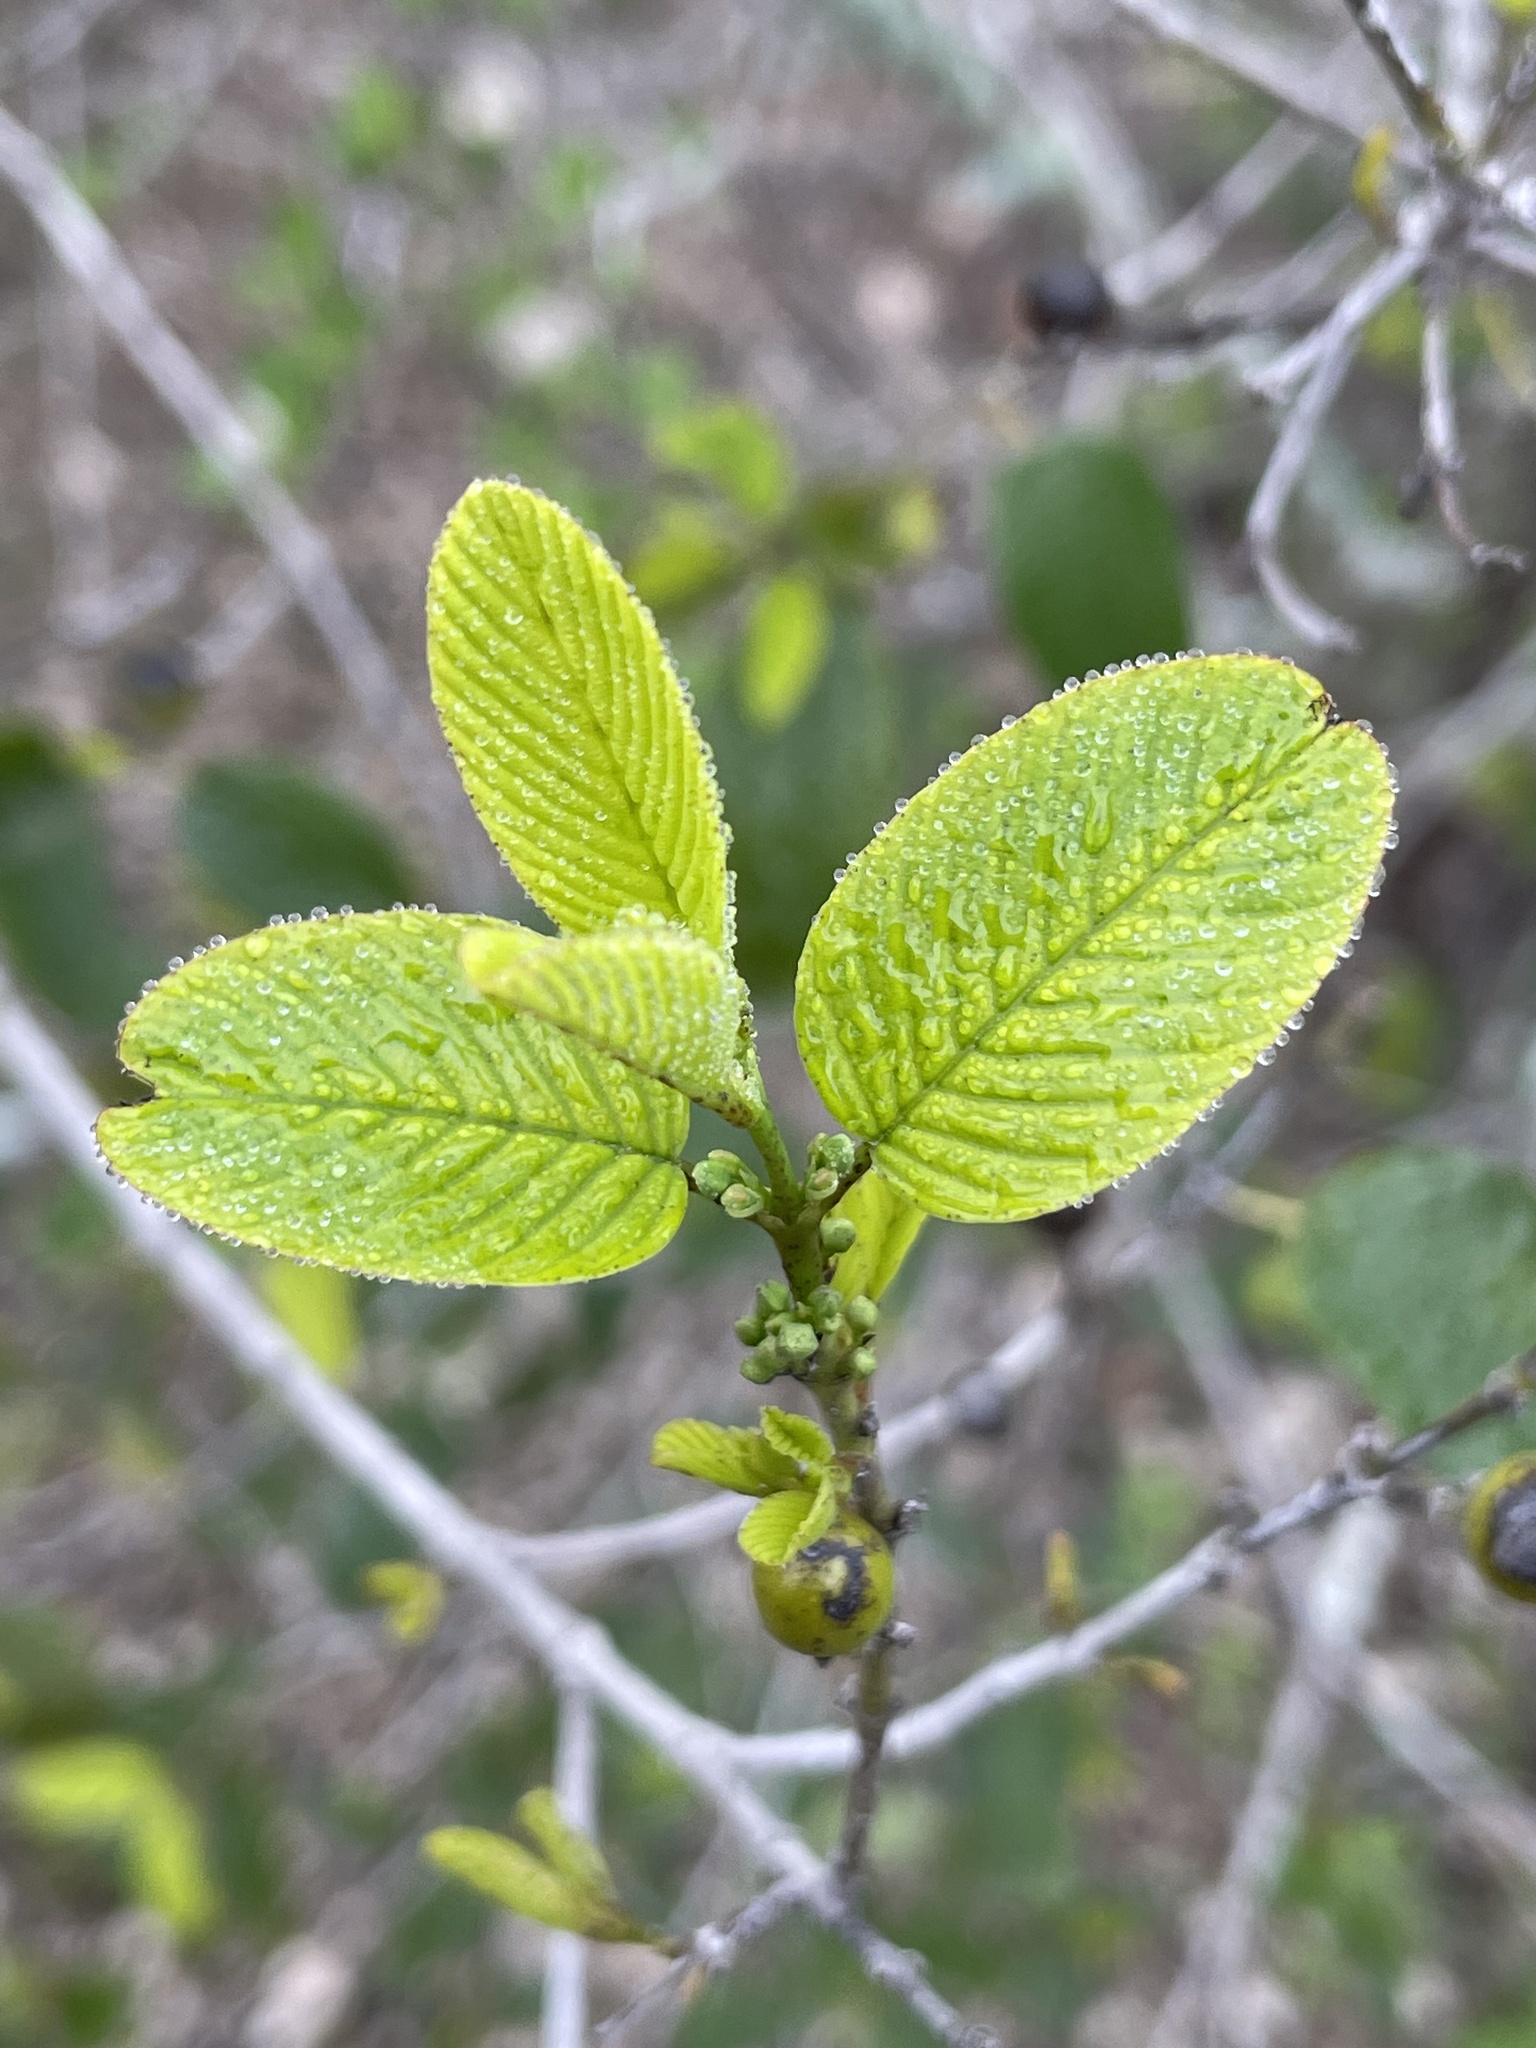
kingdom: Plantae
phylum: Tracheophyta
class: Magnoliopsida
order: Rosales
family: Rhamnaceae
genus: Karwinskia
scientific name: Karwinskia humboldtiana
